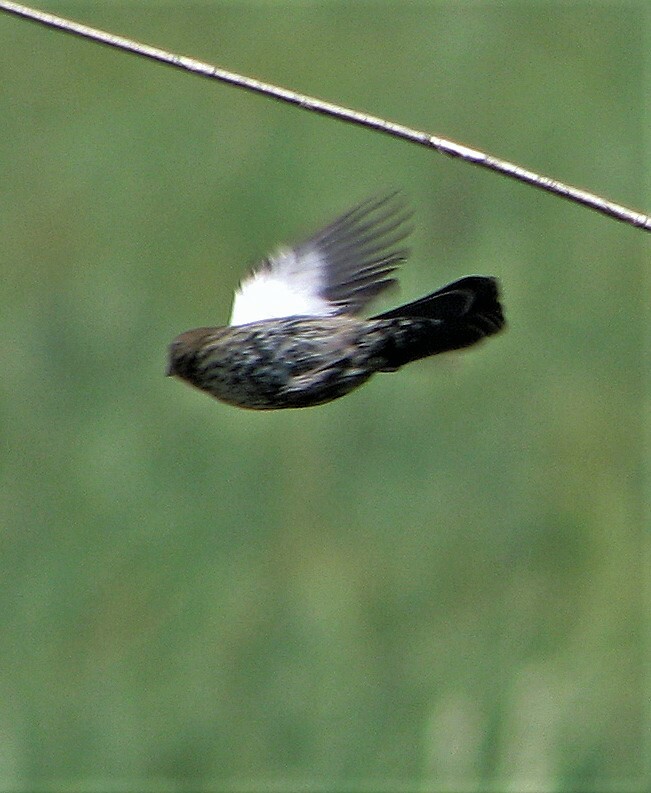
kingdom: Animalia
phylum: Chordata
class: Aves
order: Passeriformes
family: Thraupidae
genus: Volatinia
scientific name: Volatinia jacarina
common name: Blue-black grassquit
